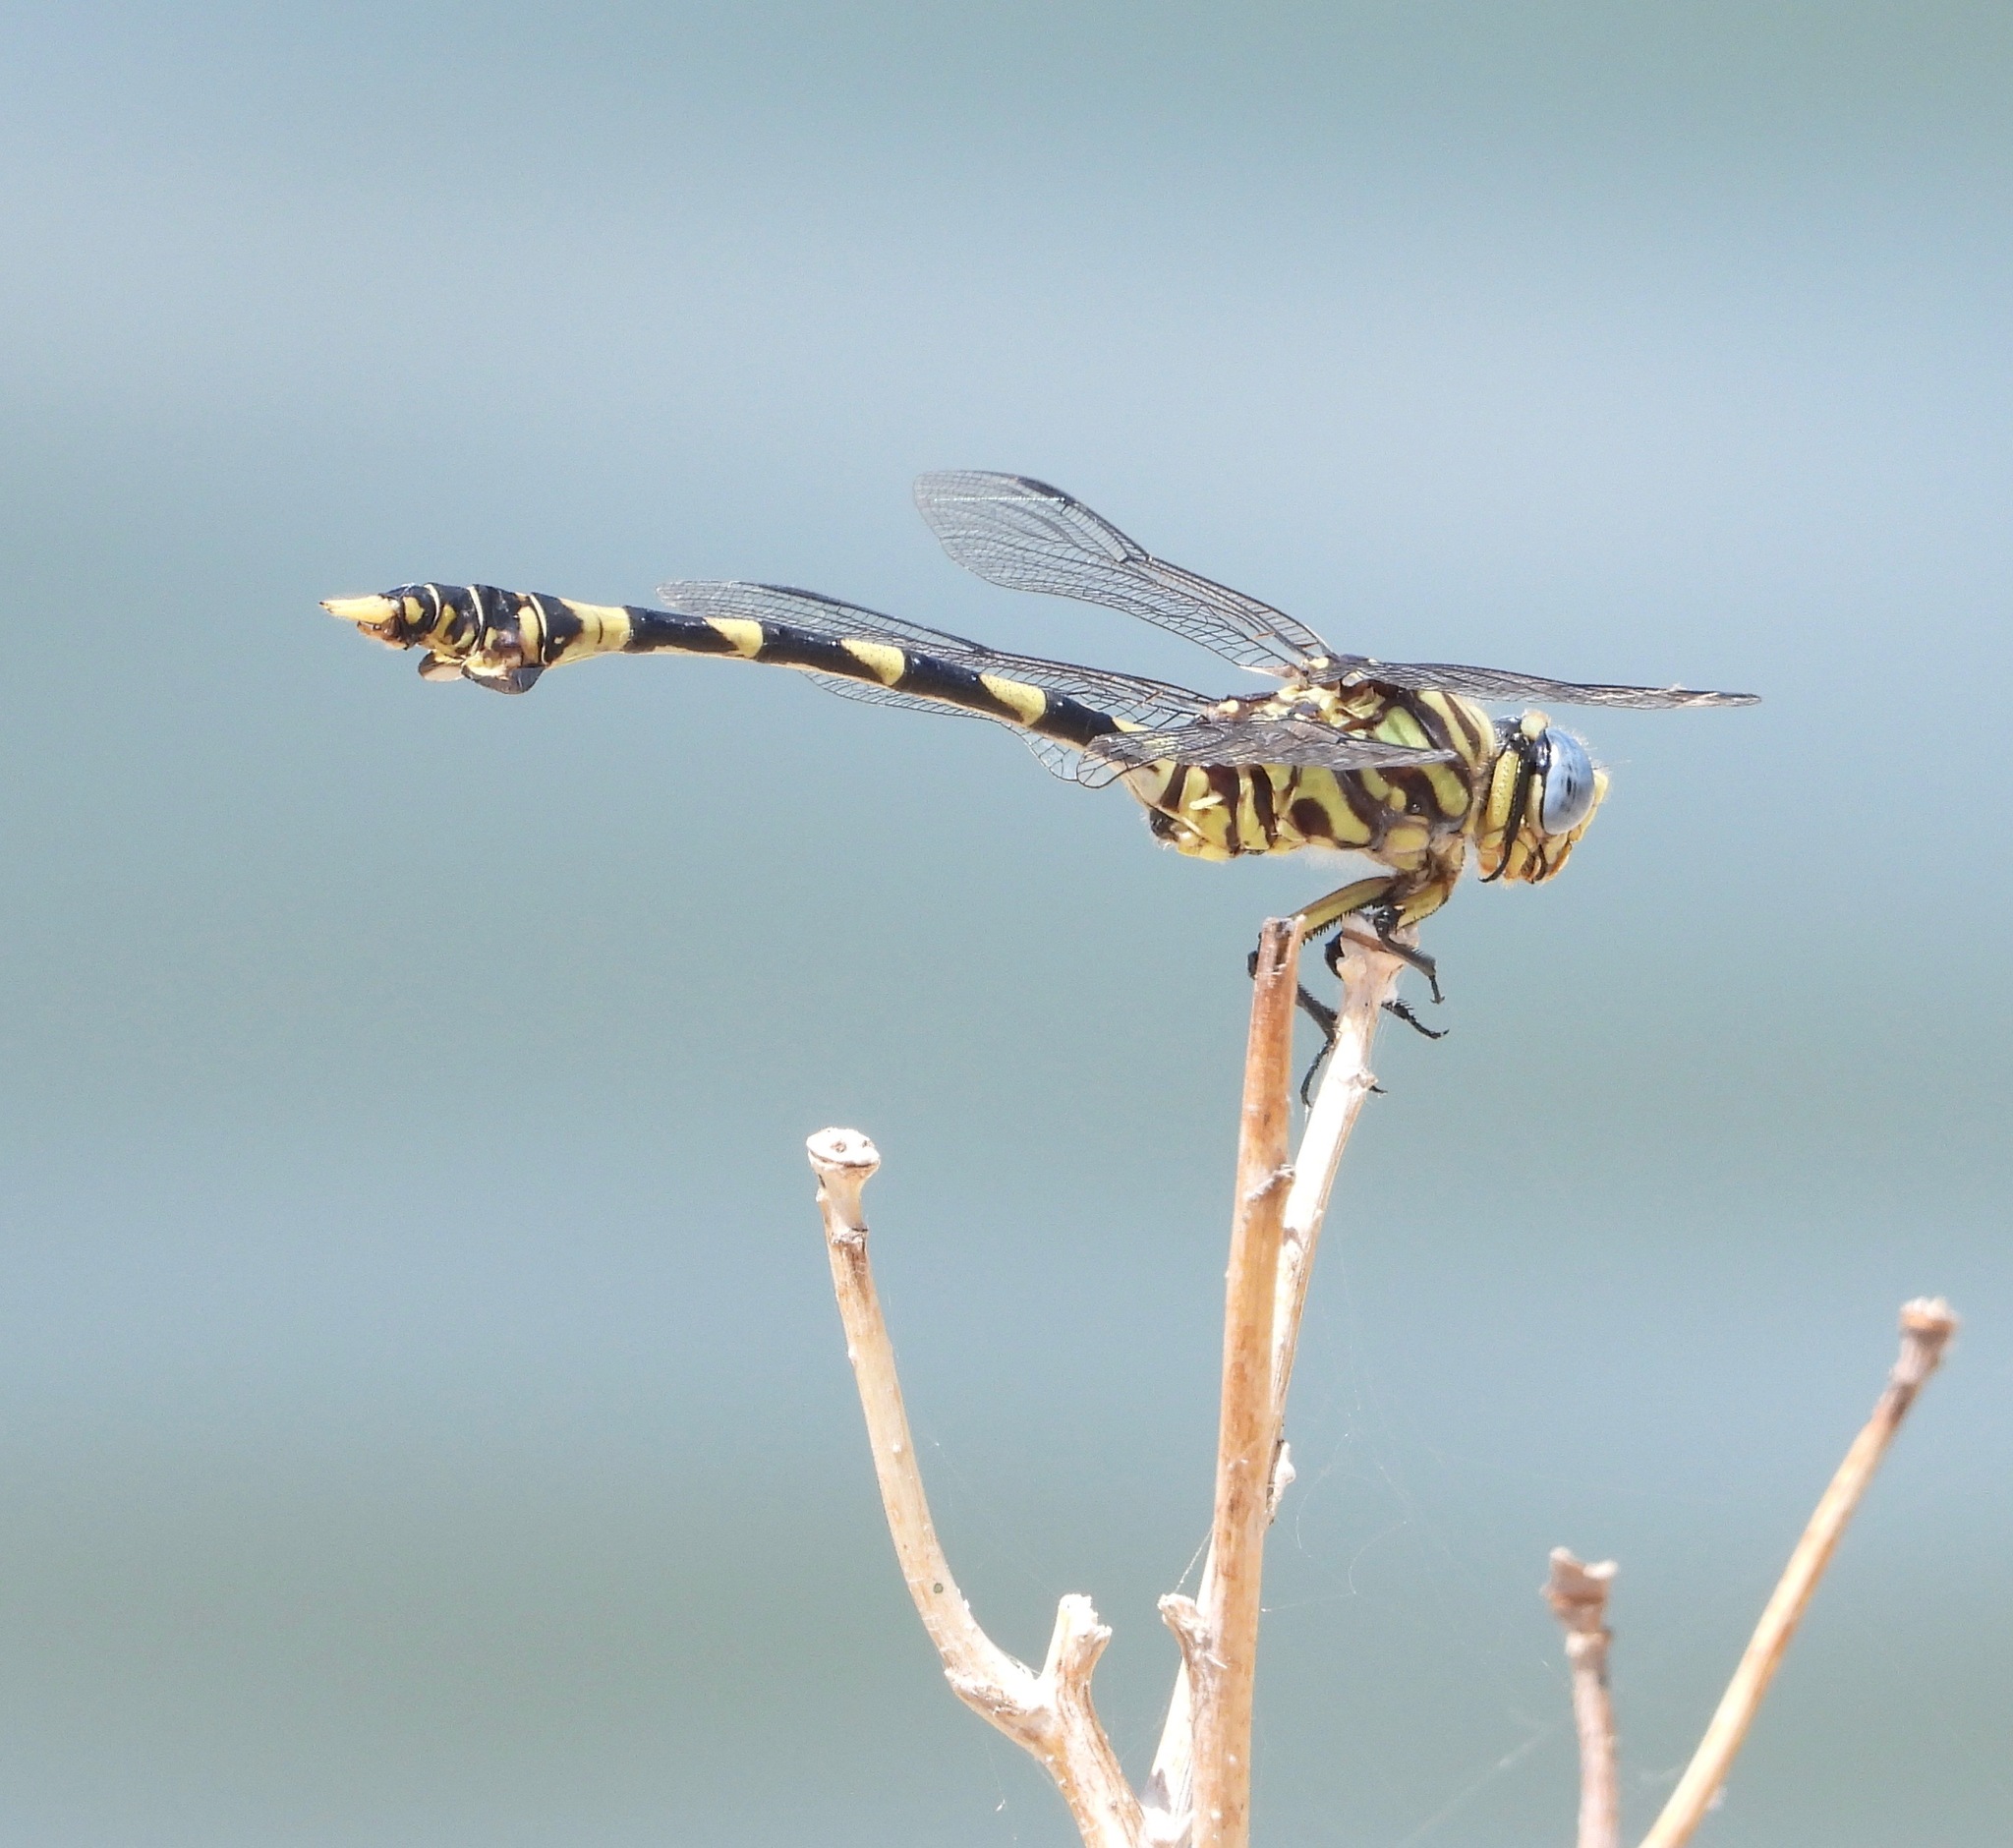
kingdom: Animalia
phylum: Arthropoda
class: Insecta
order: Odonata
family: Gomphidae
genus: Ictinogomphus
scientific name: Ictinogomphus ferox
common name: Common tiger
